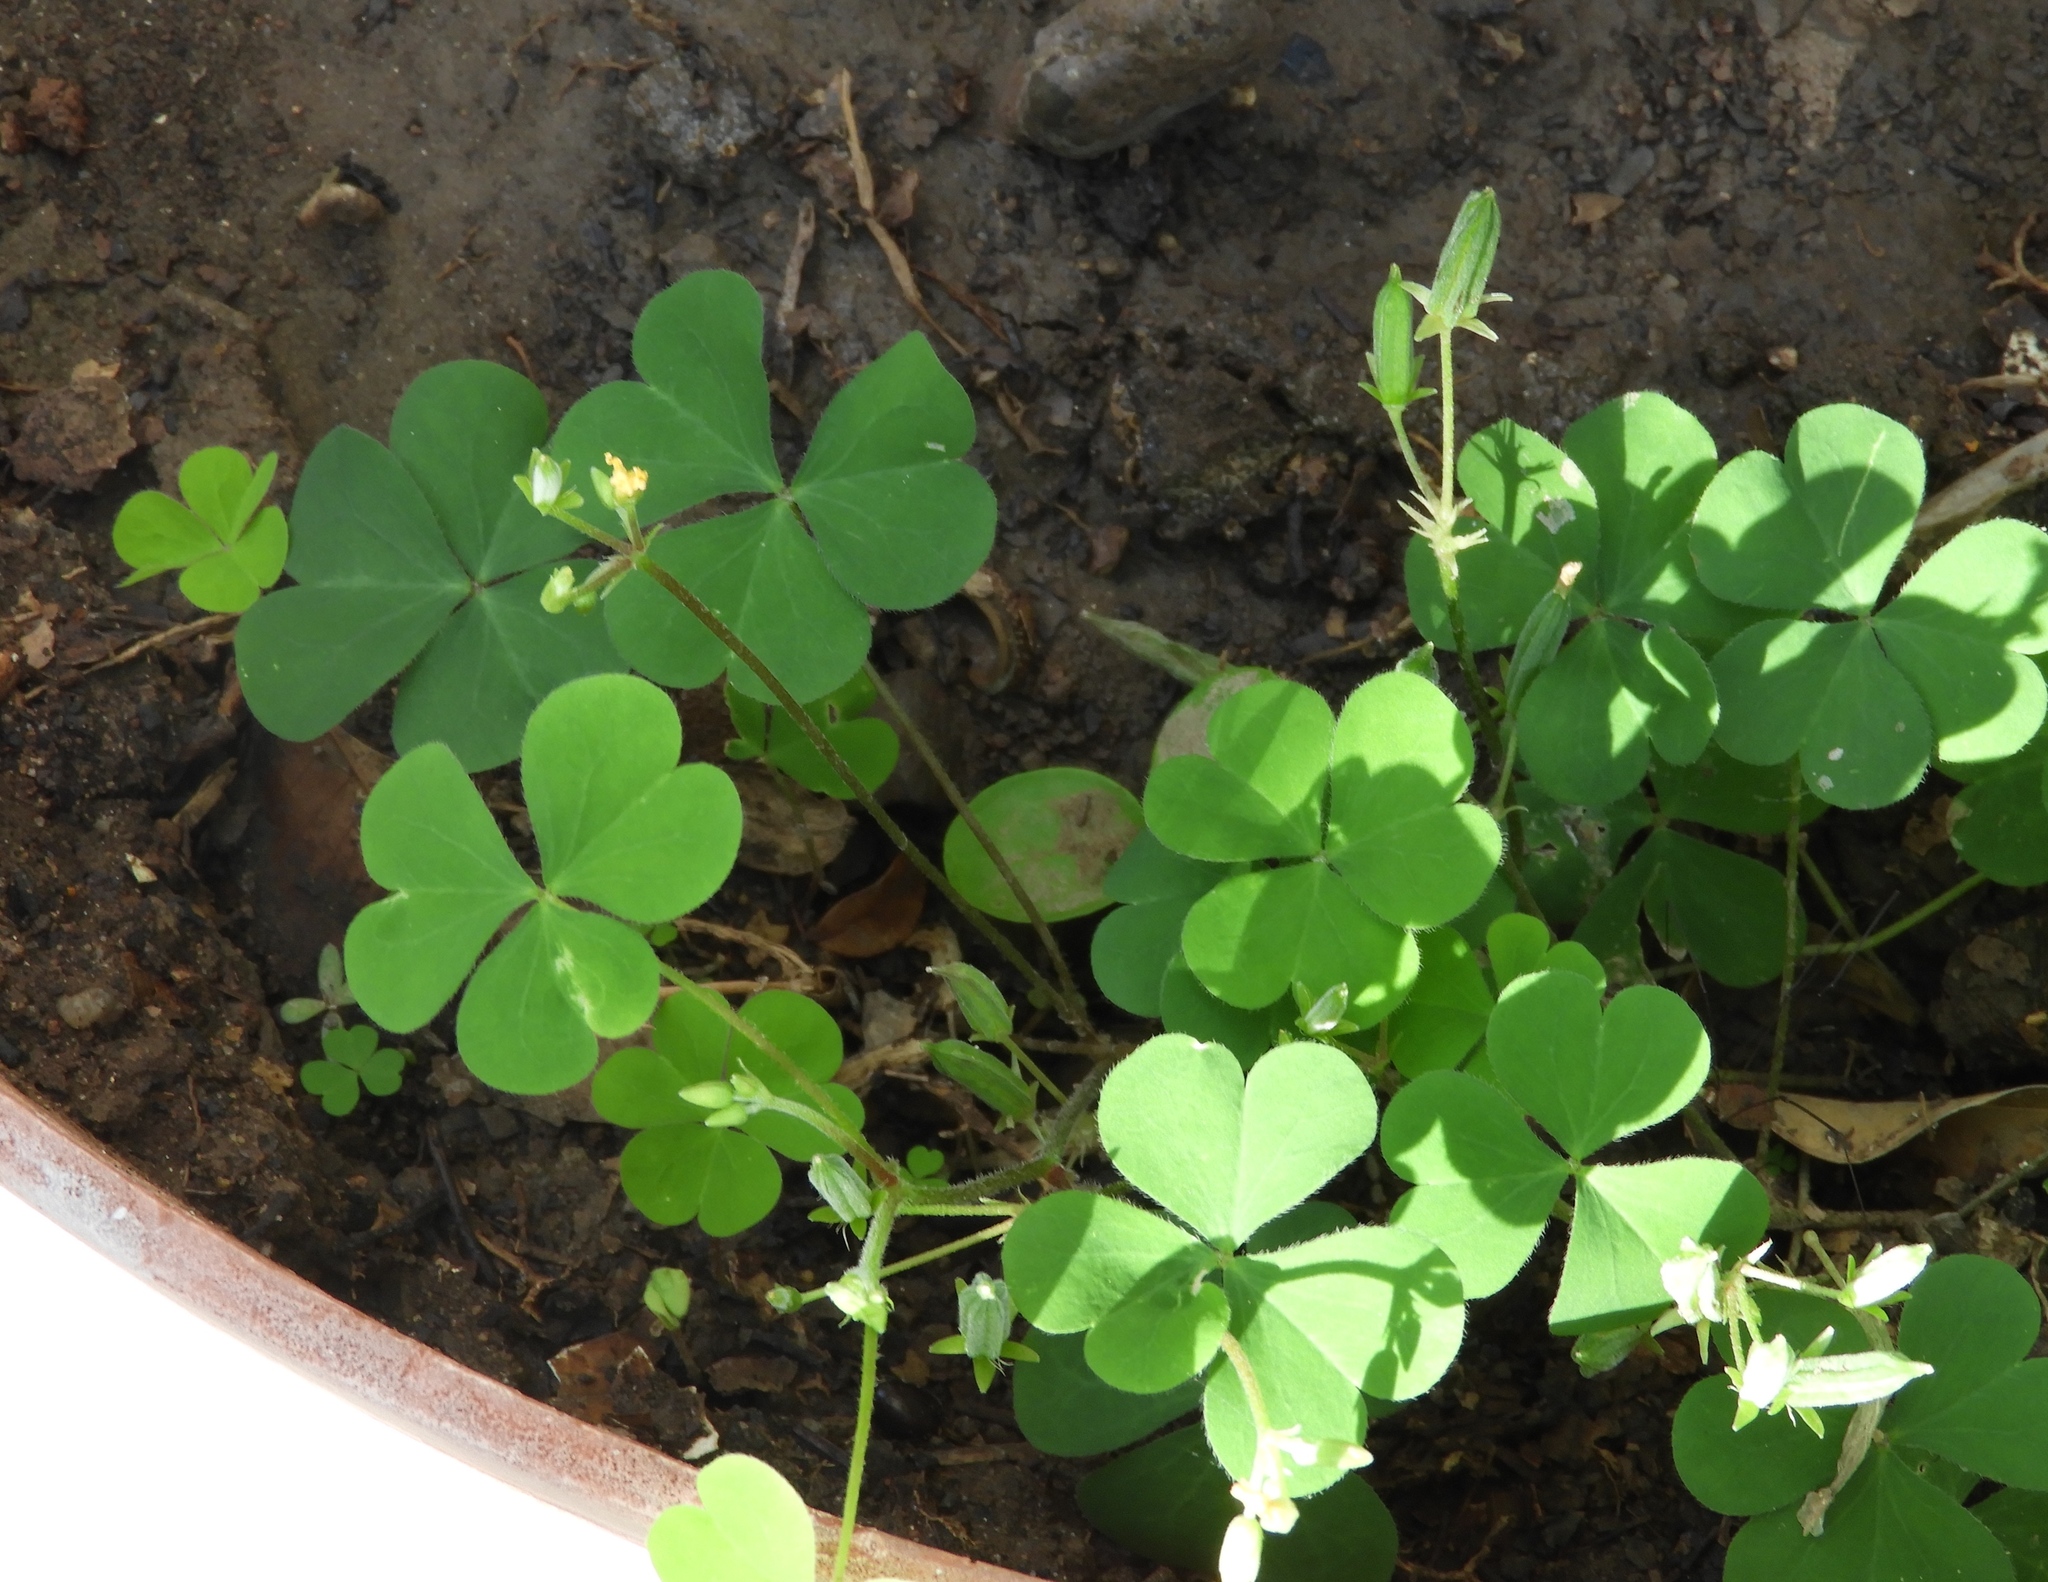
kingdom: Plantae
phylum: Tracheophyta
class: Magnoliopsida
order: Oxalidales
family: Oxalidaceae
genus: Oxalis
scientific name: Oxalis
